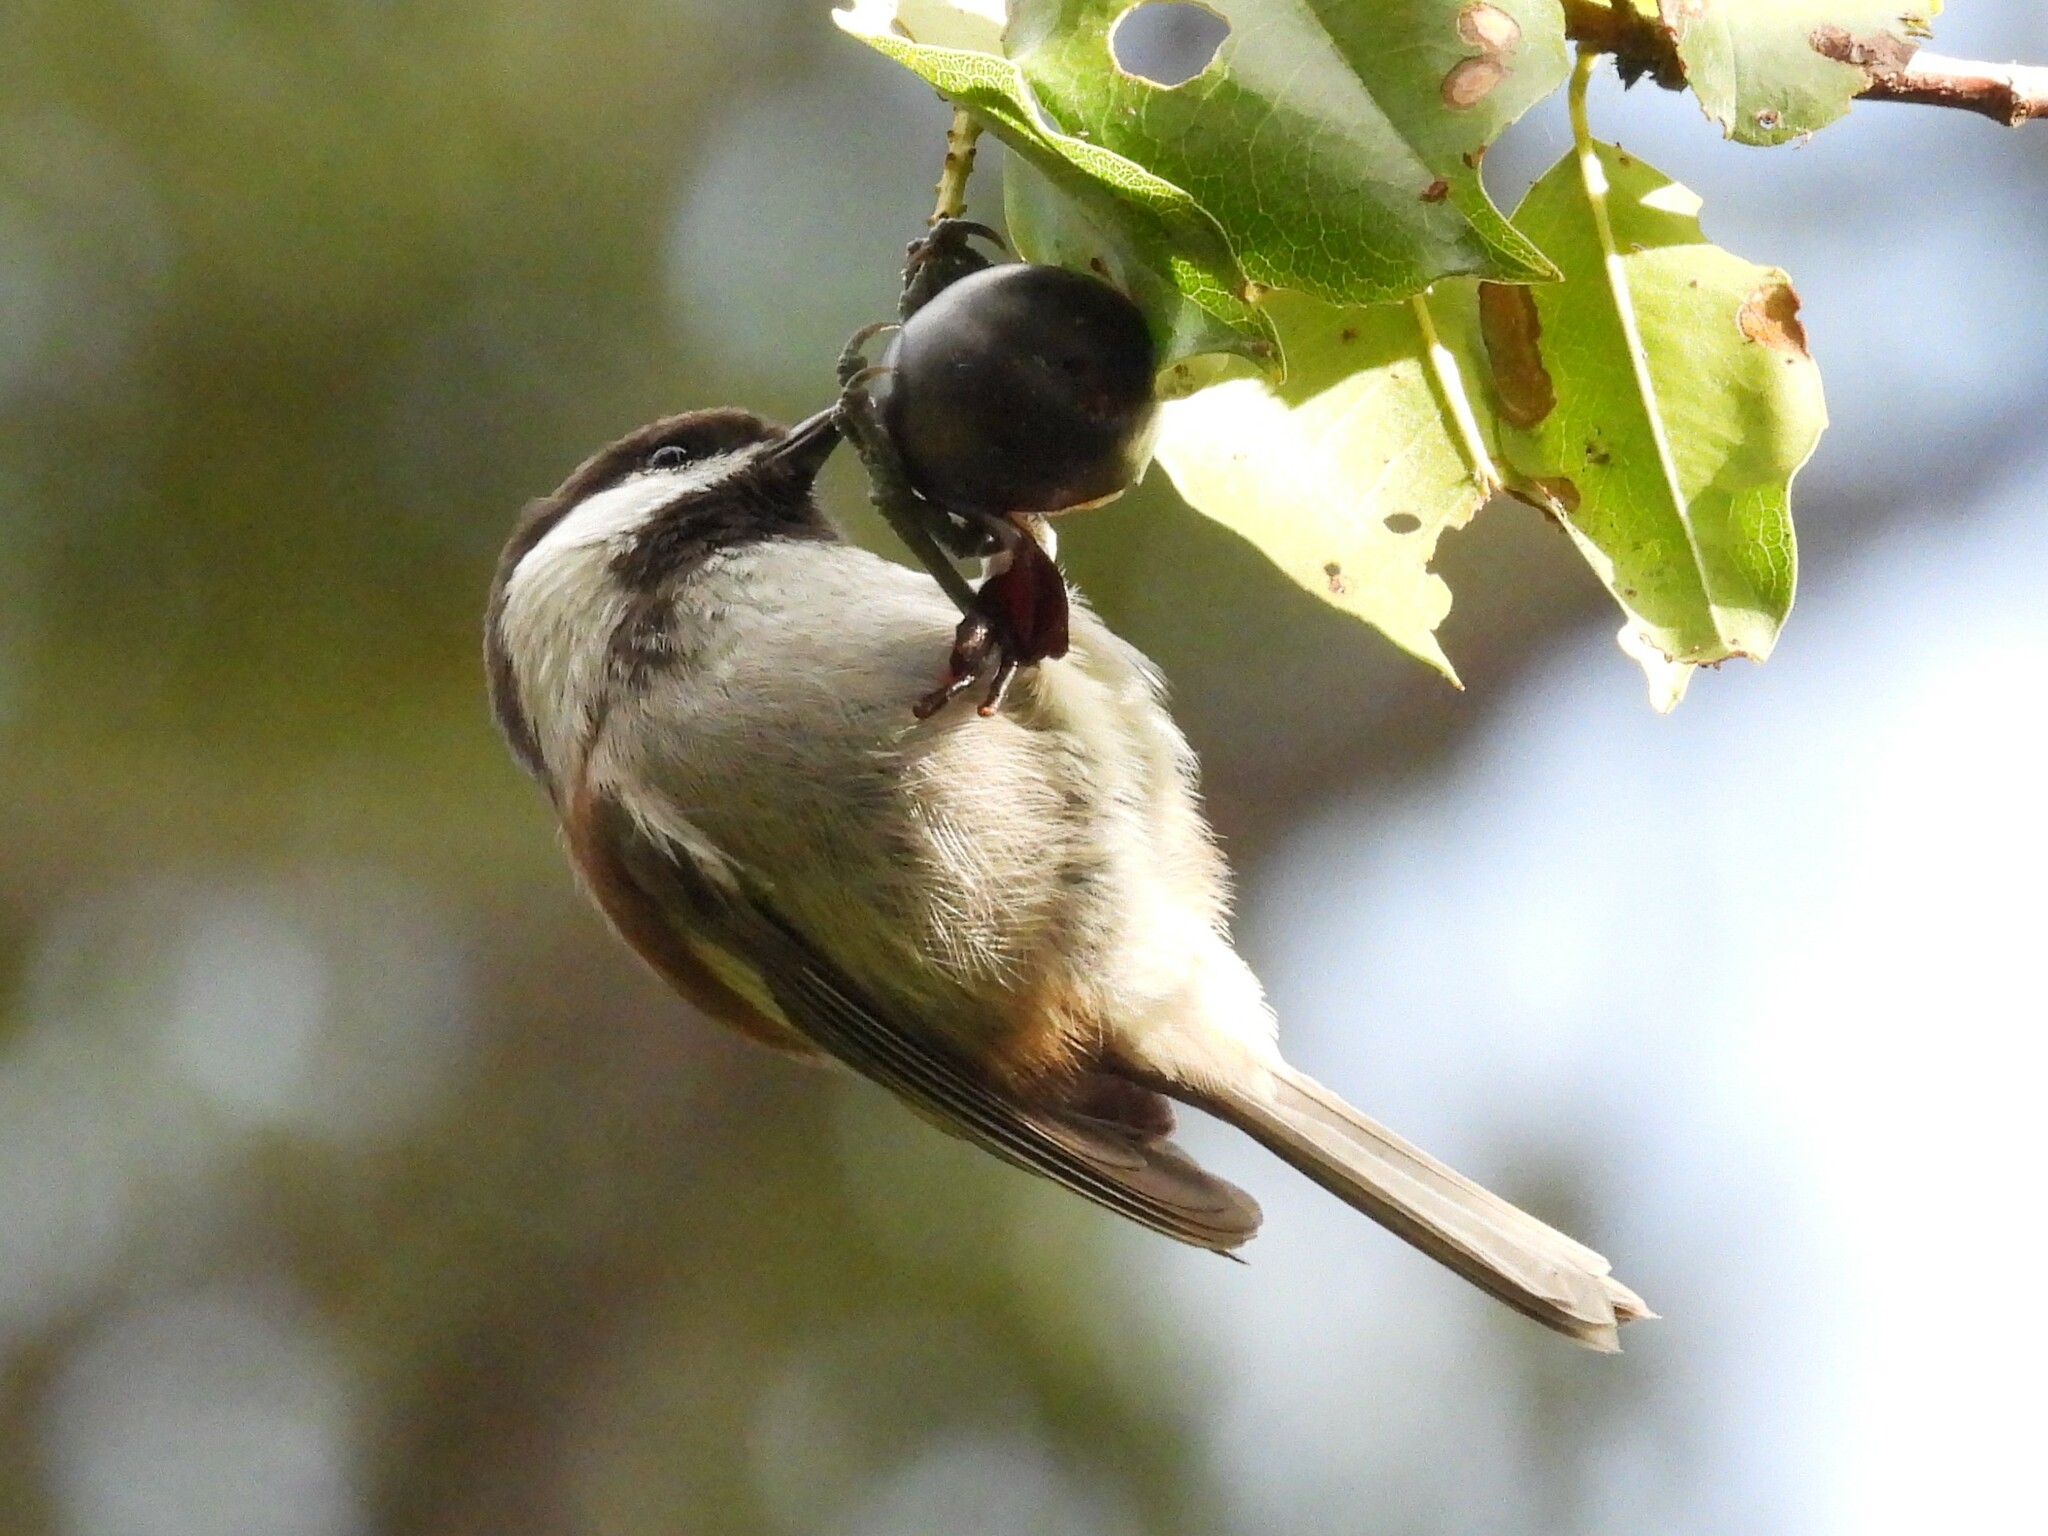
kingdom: Animalia
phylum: Chordata
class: Aves
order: Passeriformes
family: Paridae
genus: Poecile
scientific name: Poecile rufescens
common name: Chestnut-backed chickadee
